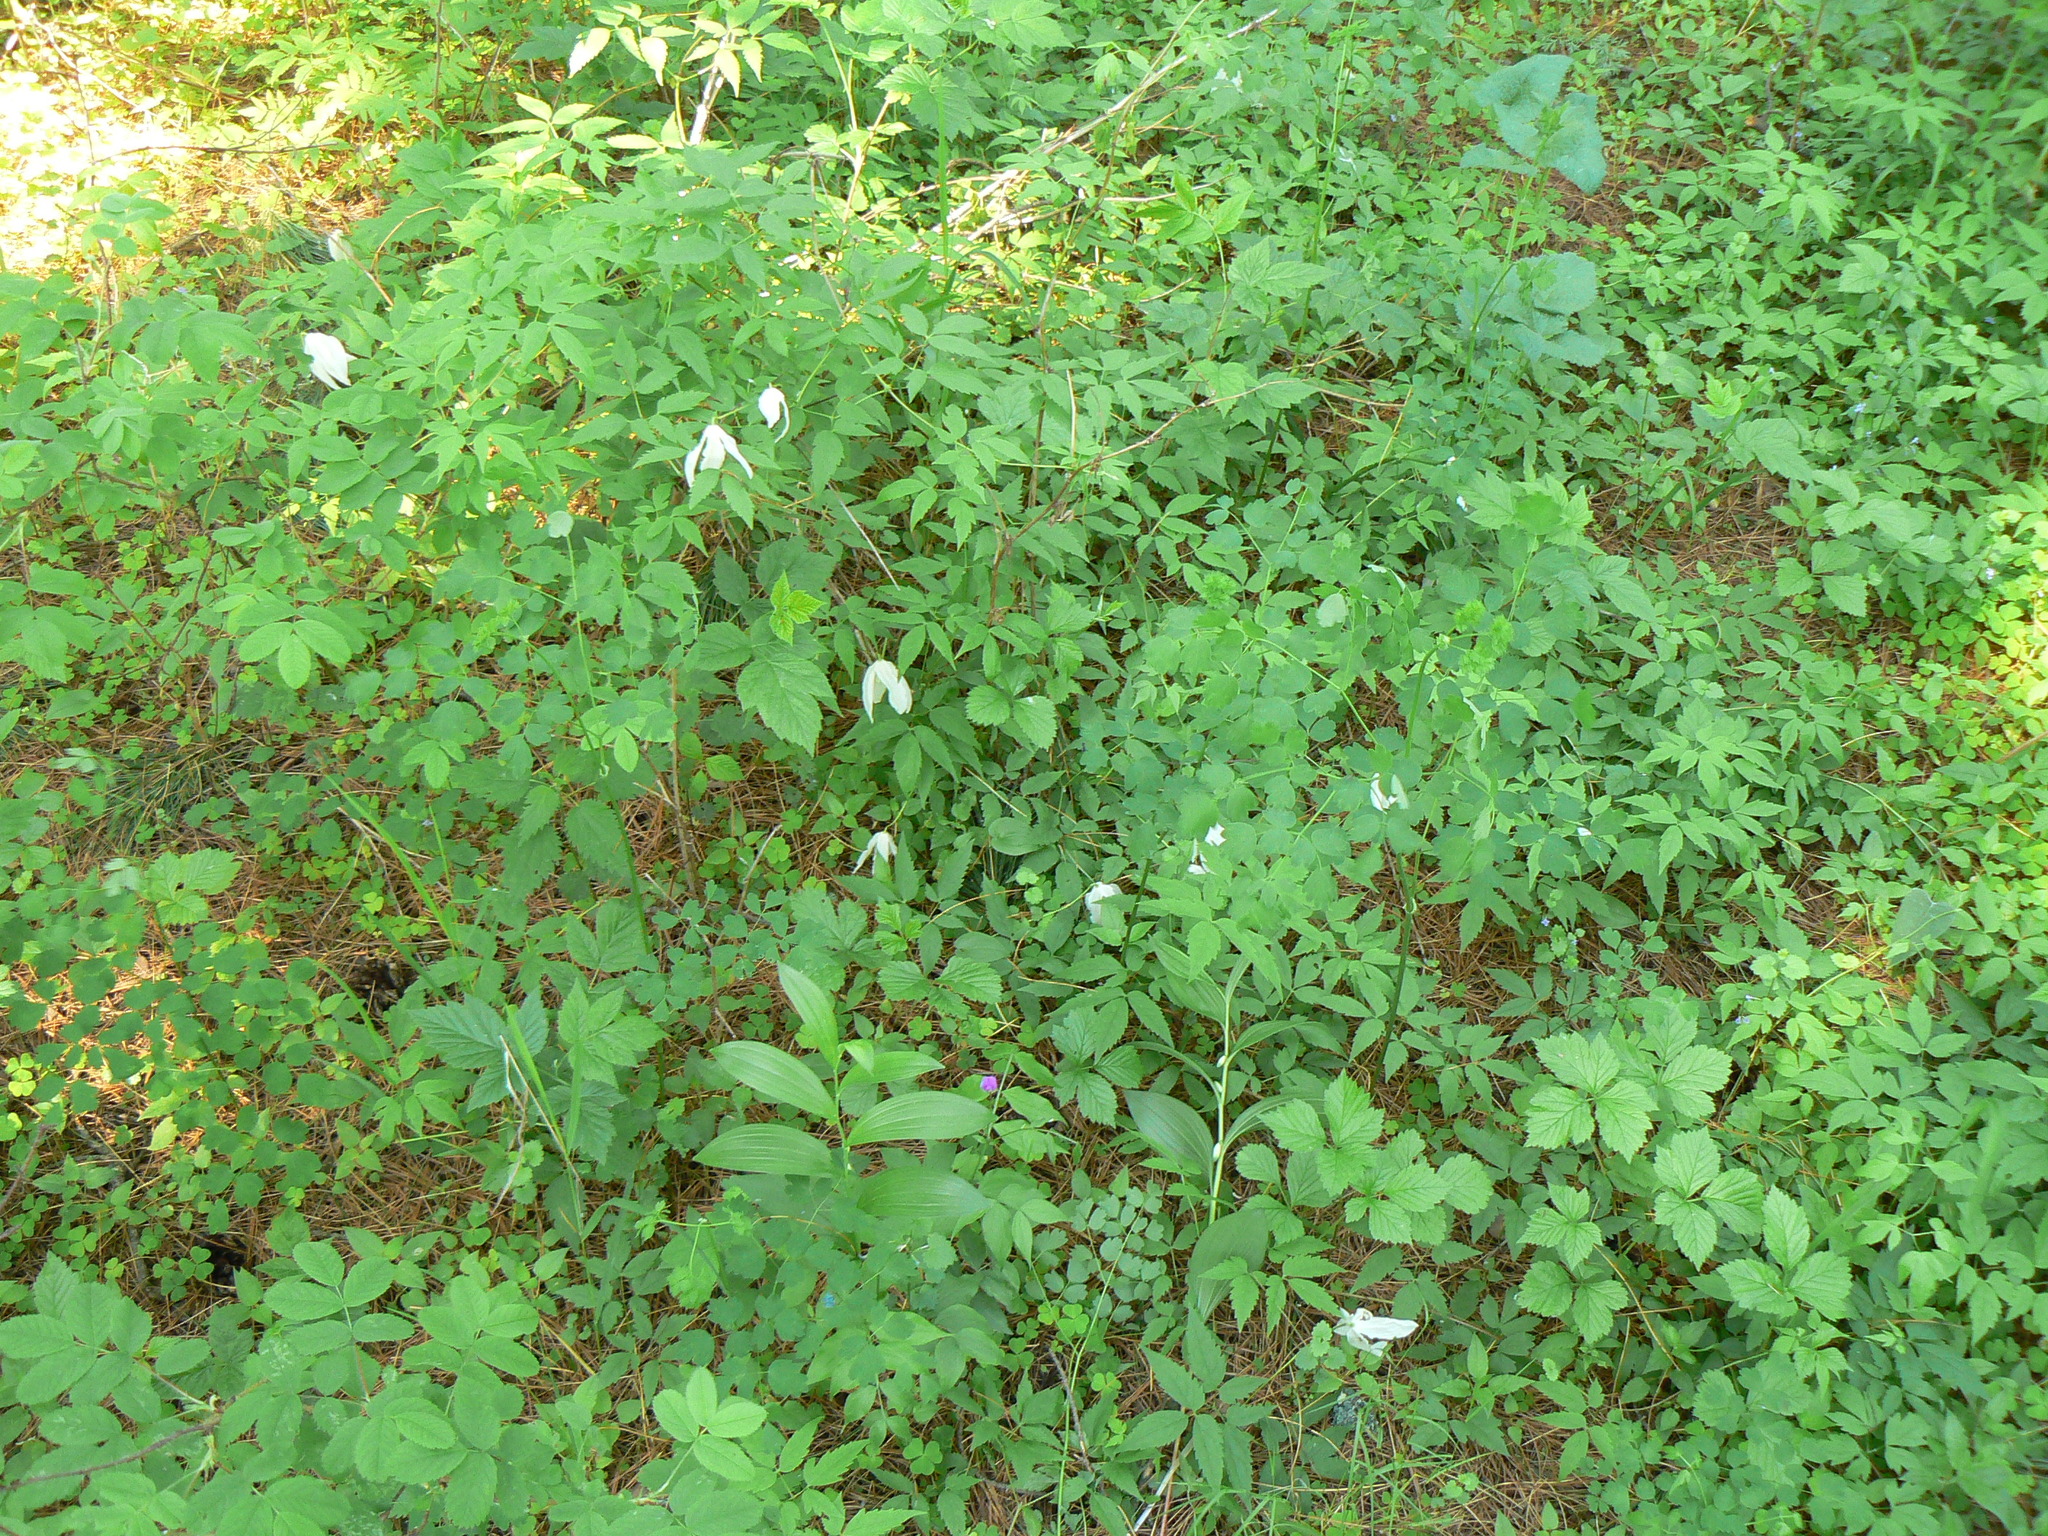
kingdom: Plantae
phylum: Tracheophyta
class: Magnoliopsida
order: Ranunculales
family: Ranunculaceae
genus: Clematis
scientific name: Clematis sibirica
